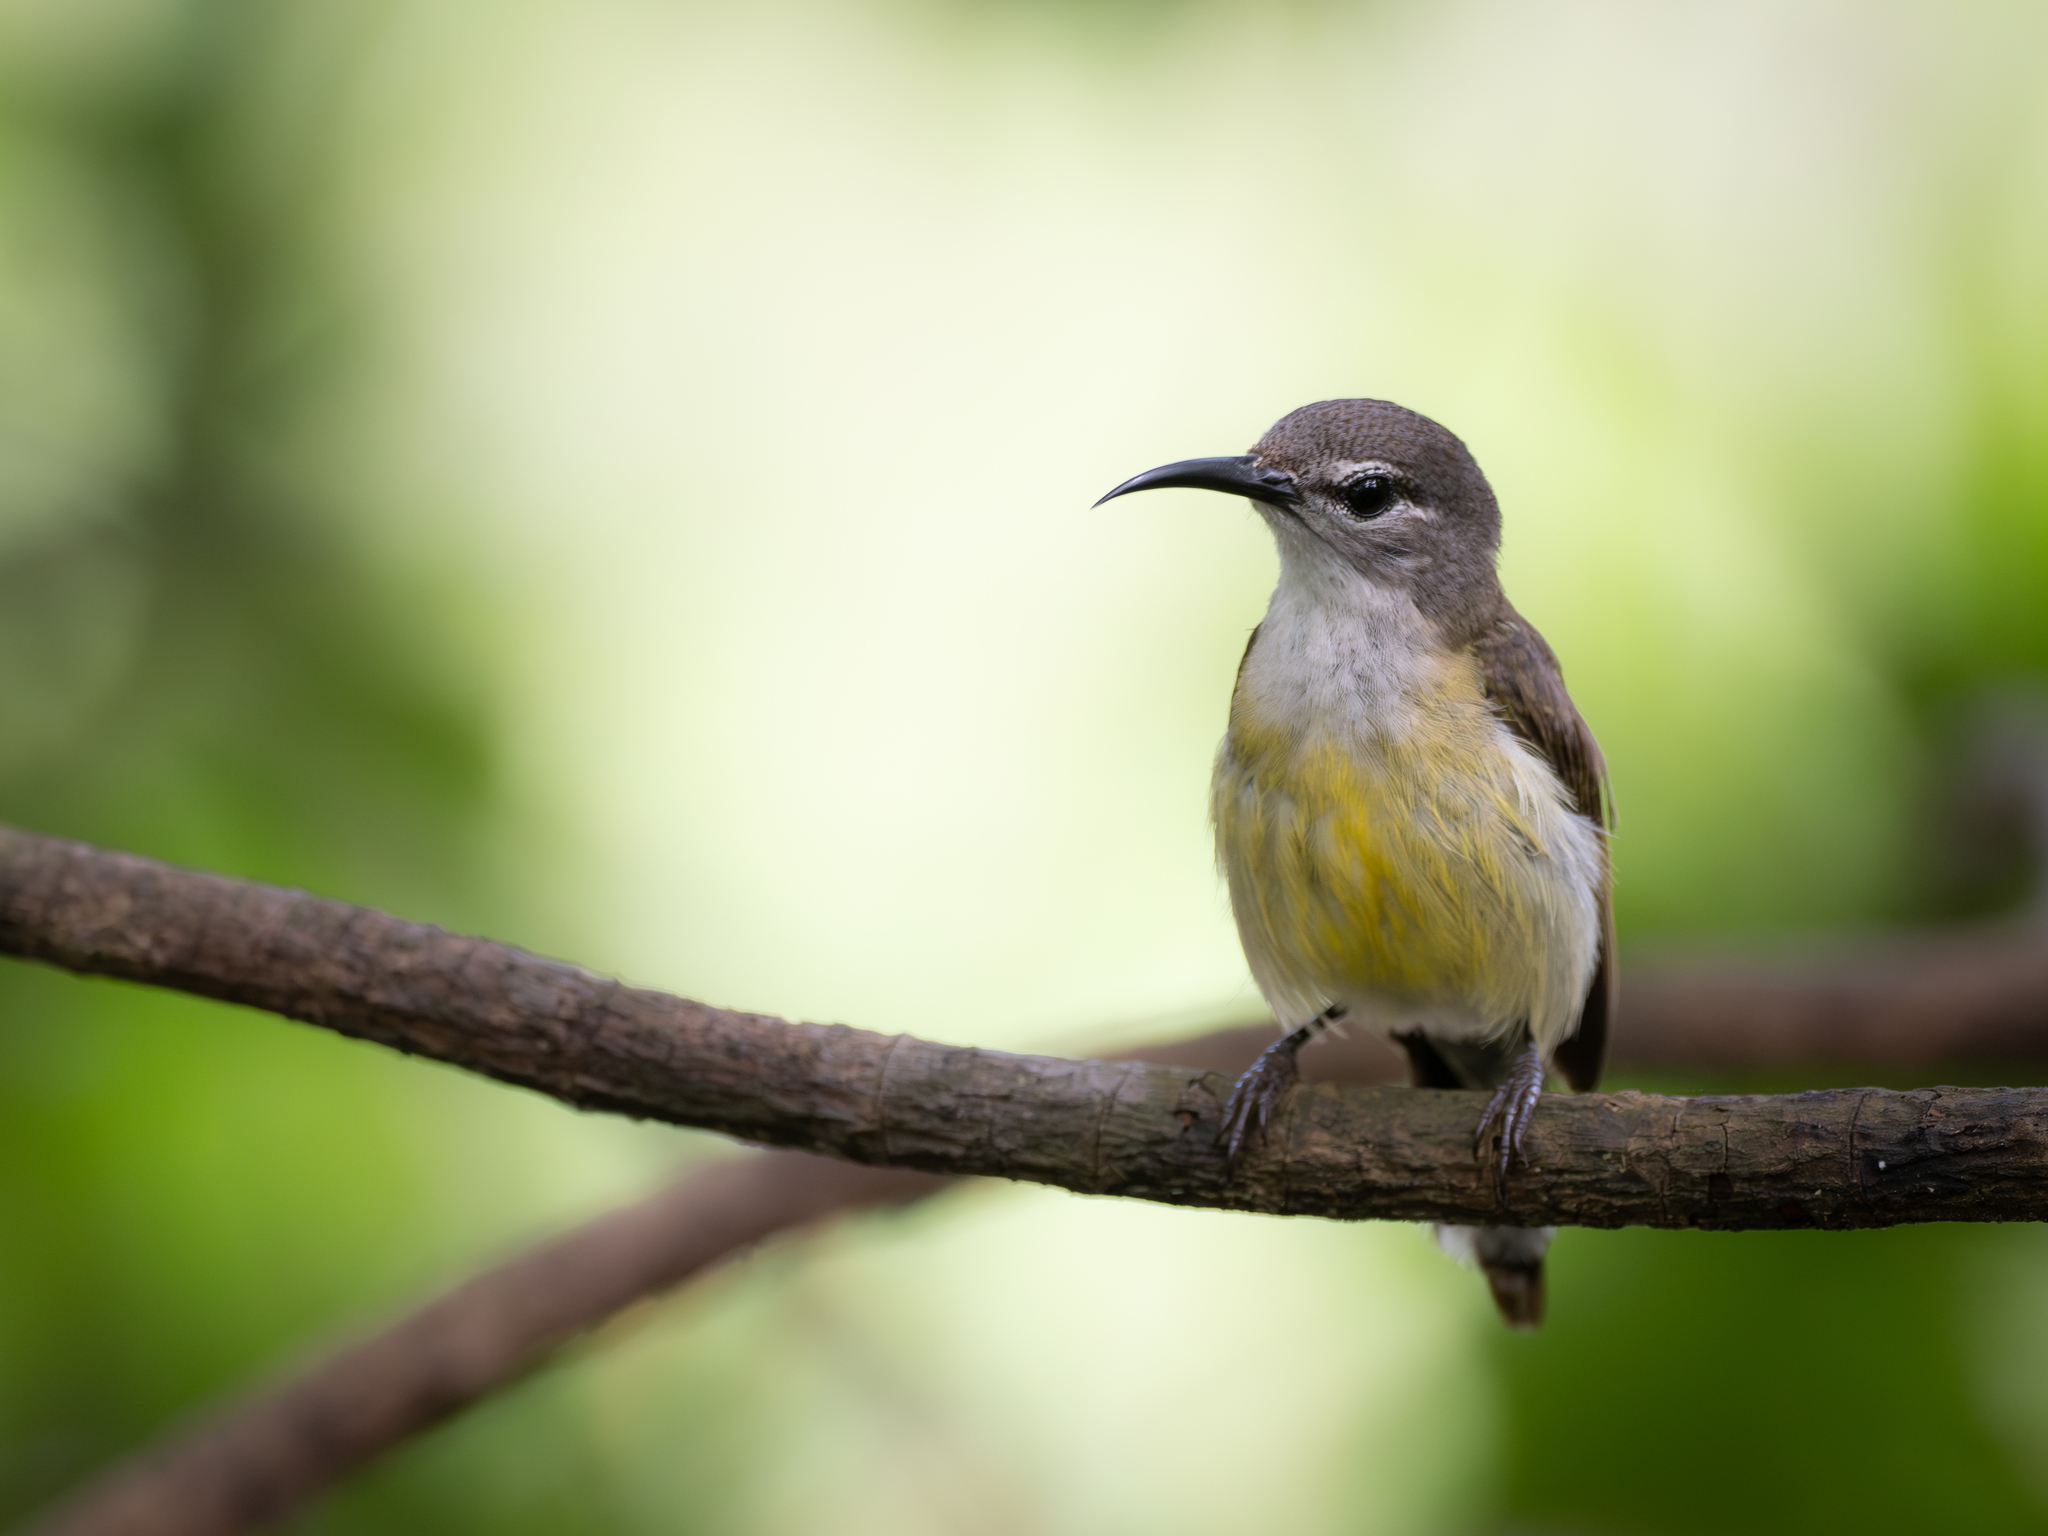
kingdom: Animalia
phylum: Chordata
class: Aves
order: Passeriformes
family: Nectariniidae
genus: Leptocoma
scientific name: Leptocoma calcostetha
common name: Copper-throated sunbird
